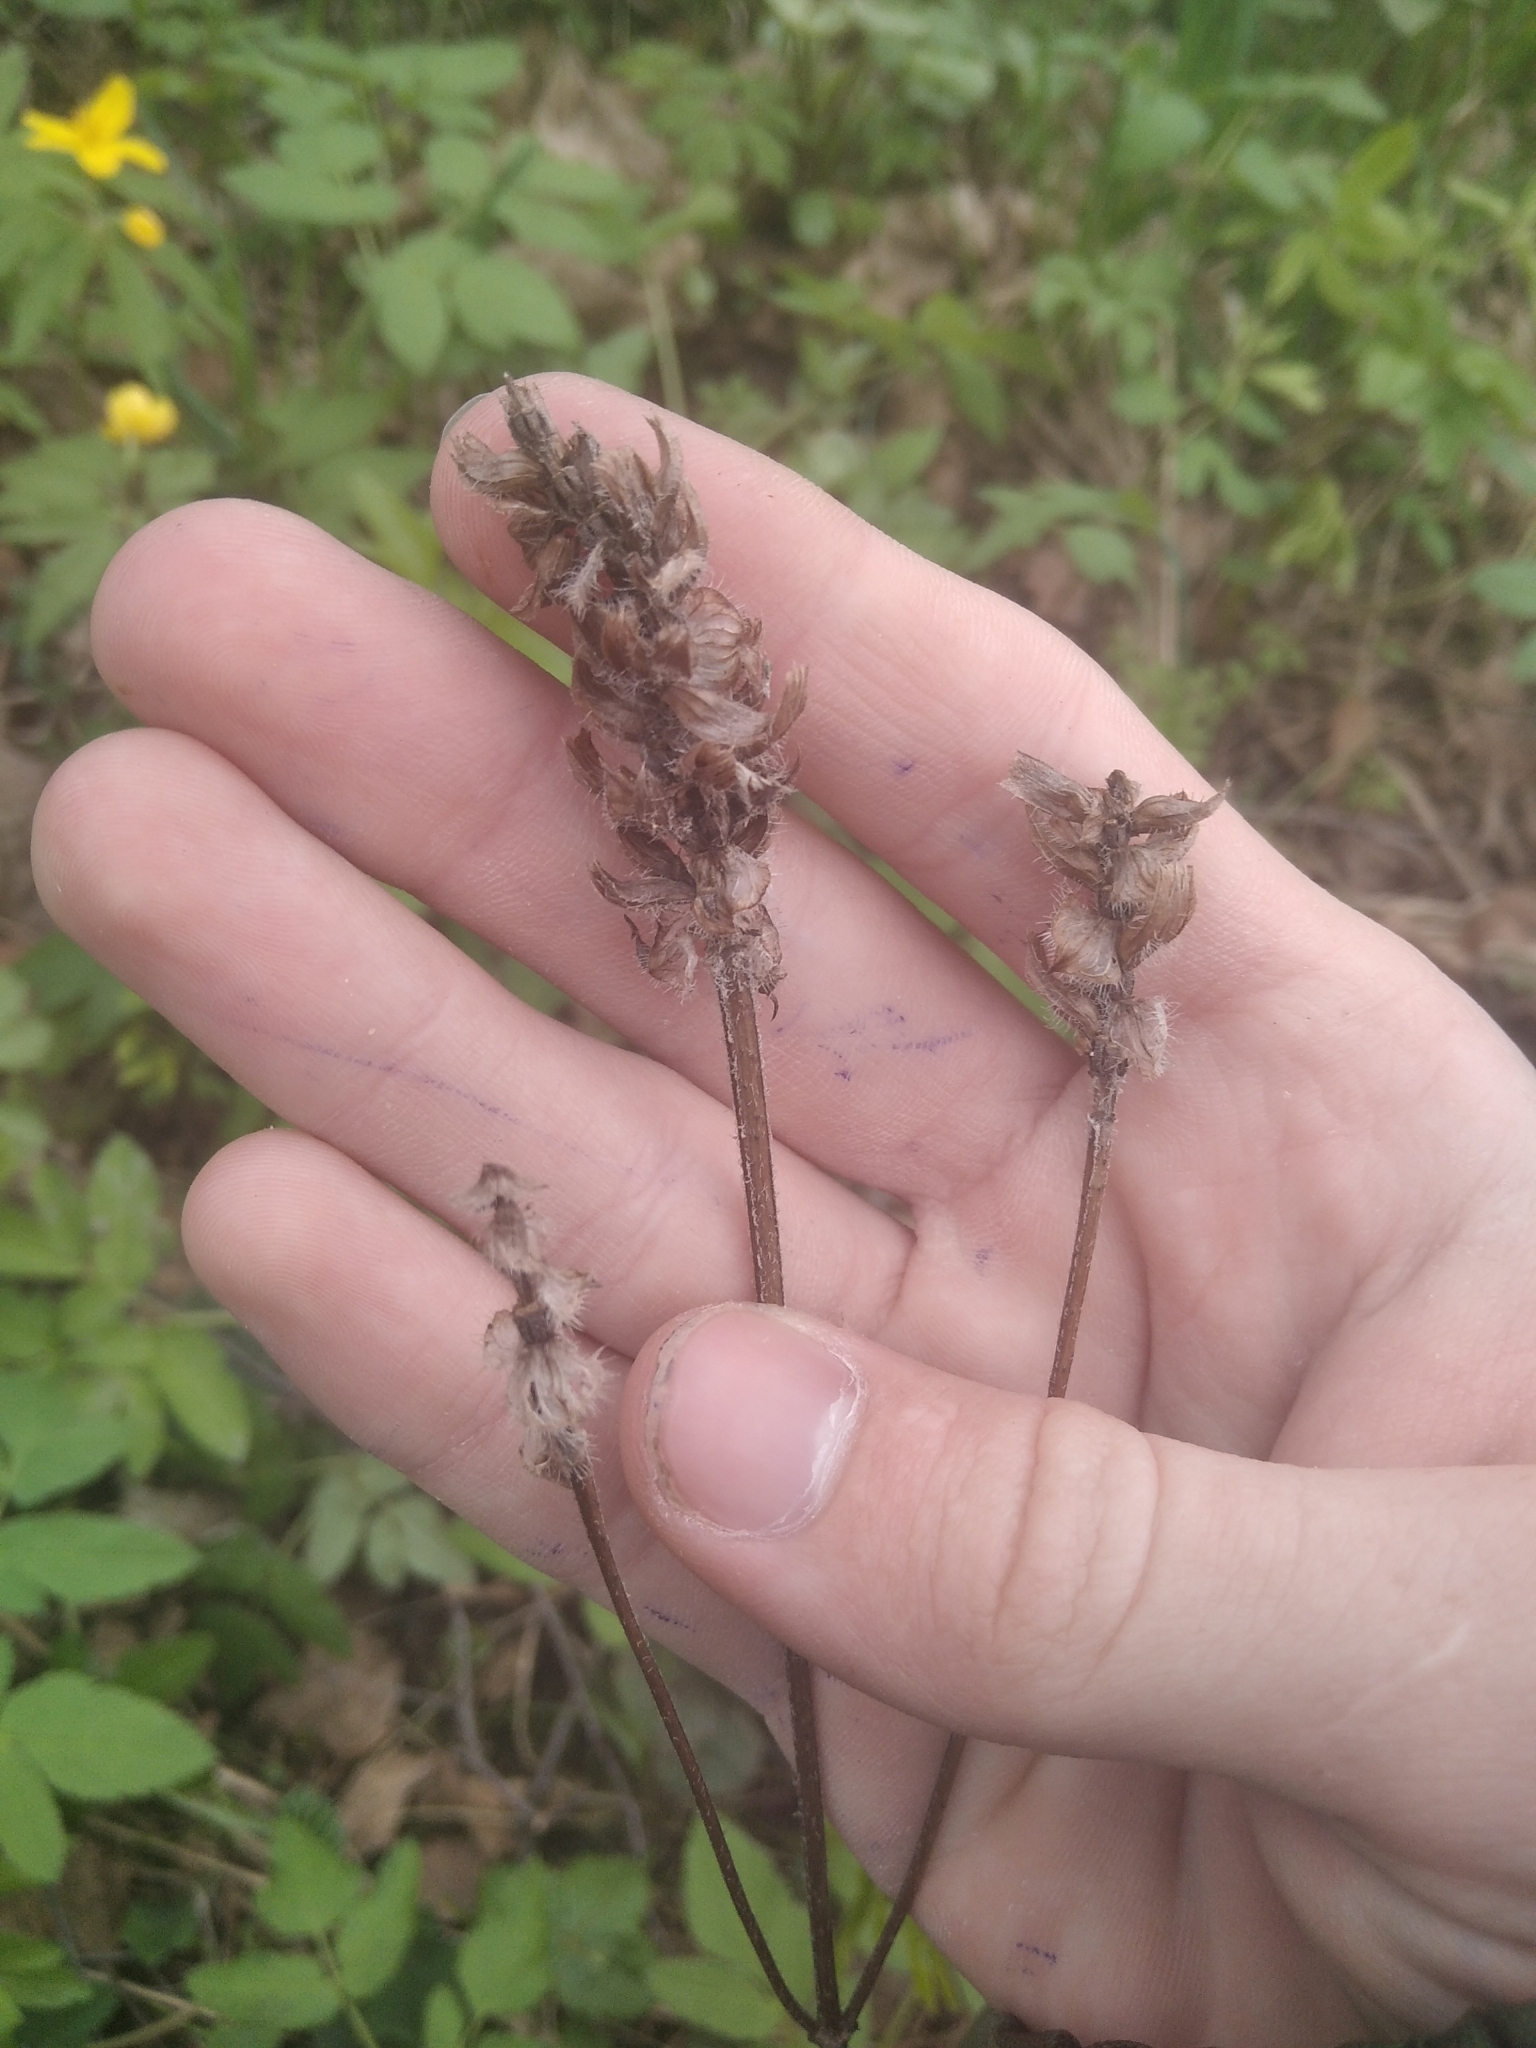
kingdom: Plantae
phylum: Tracheophyta
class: Magnoliopsida
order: Lamiales
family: Lamiaceae
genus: Prunella
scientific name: Prunella vulgaris
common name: Heal-all
